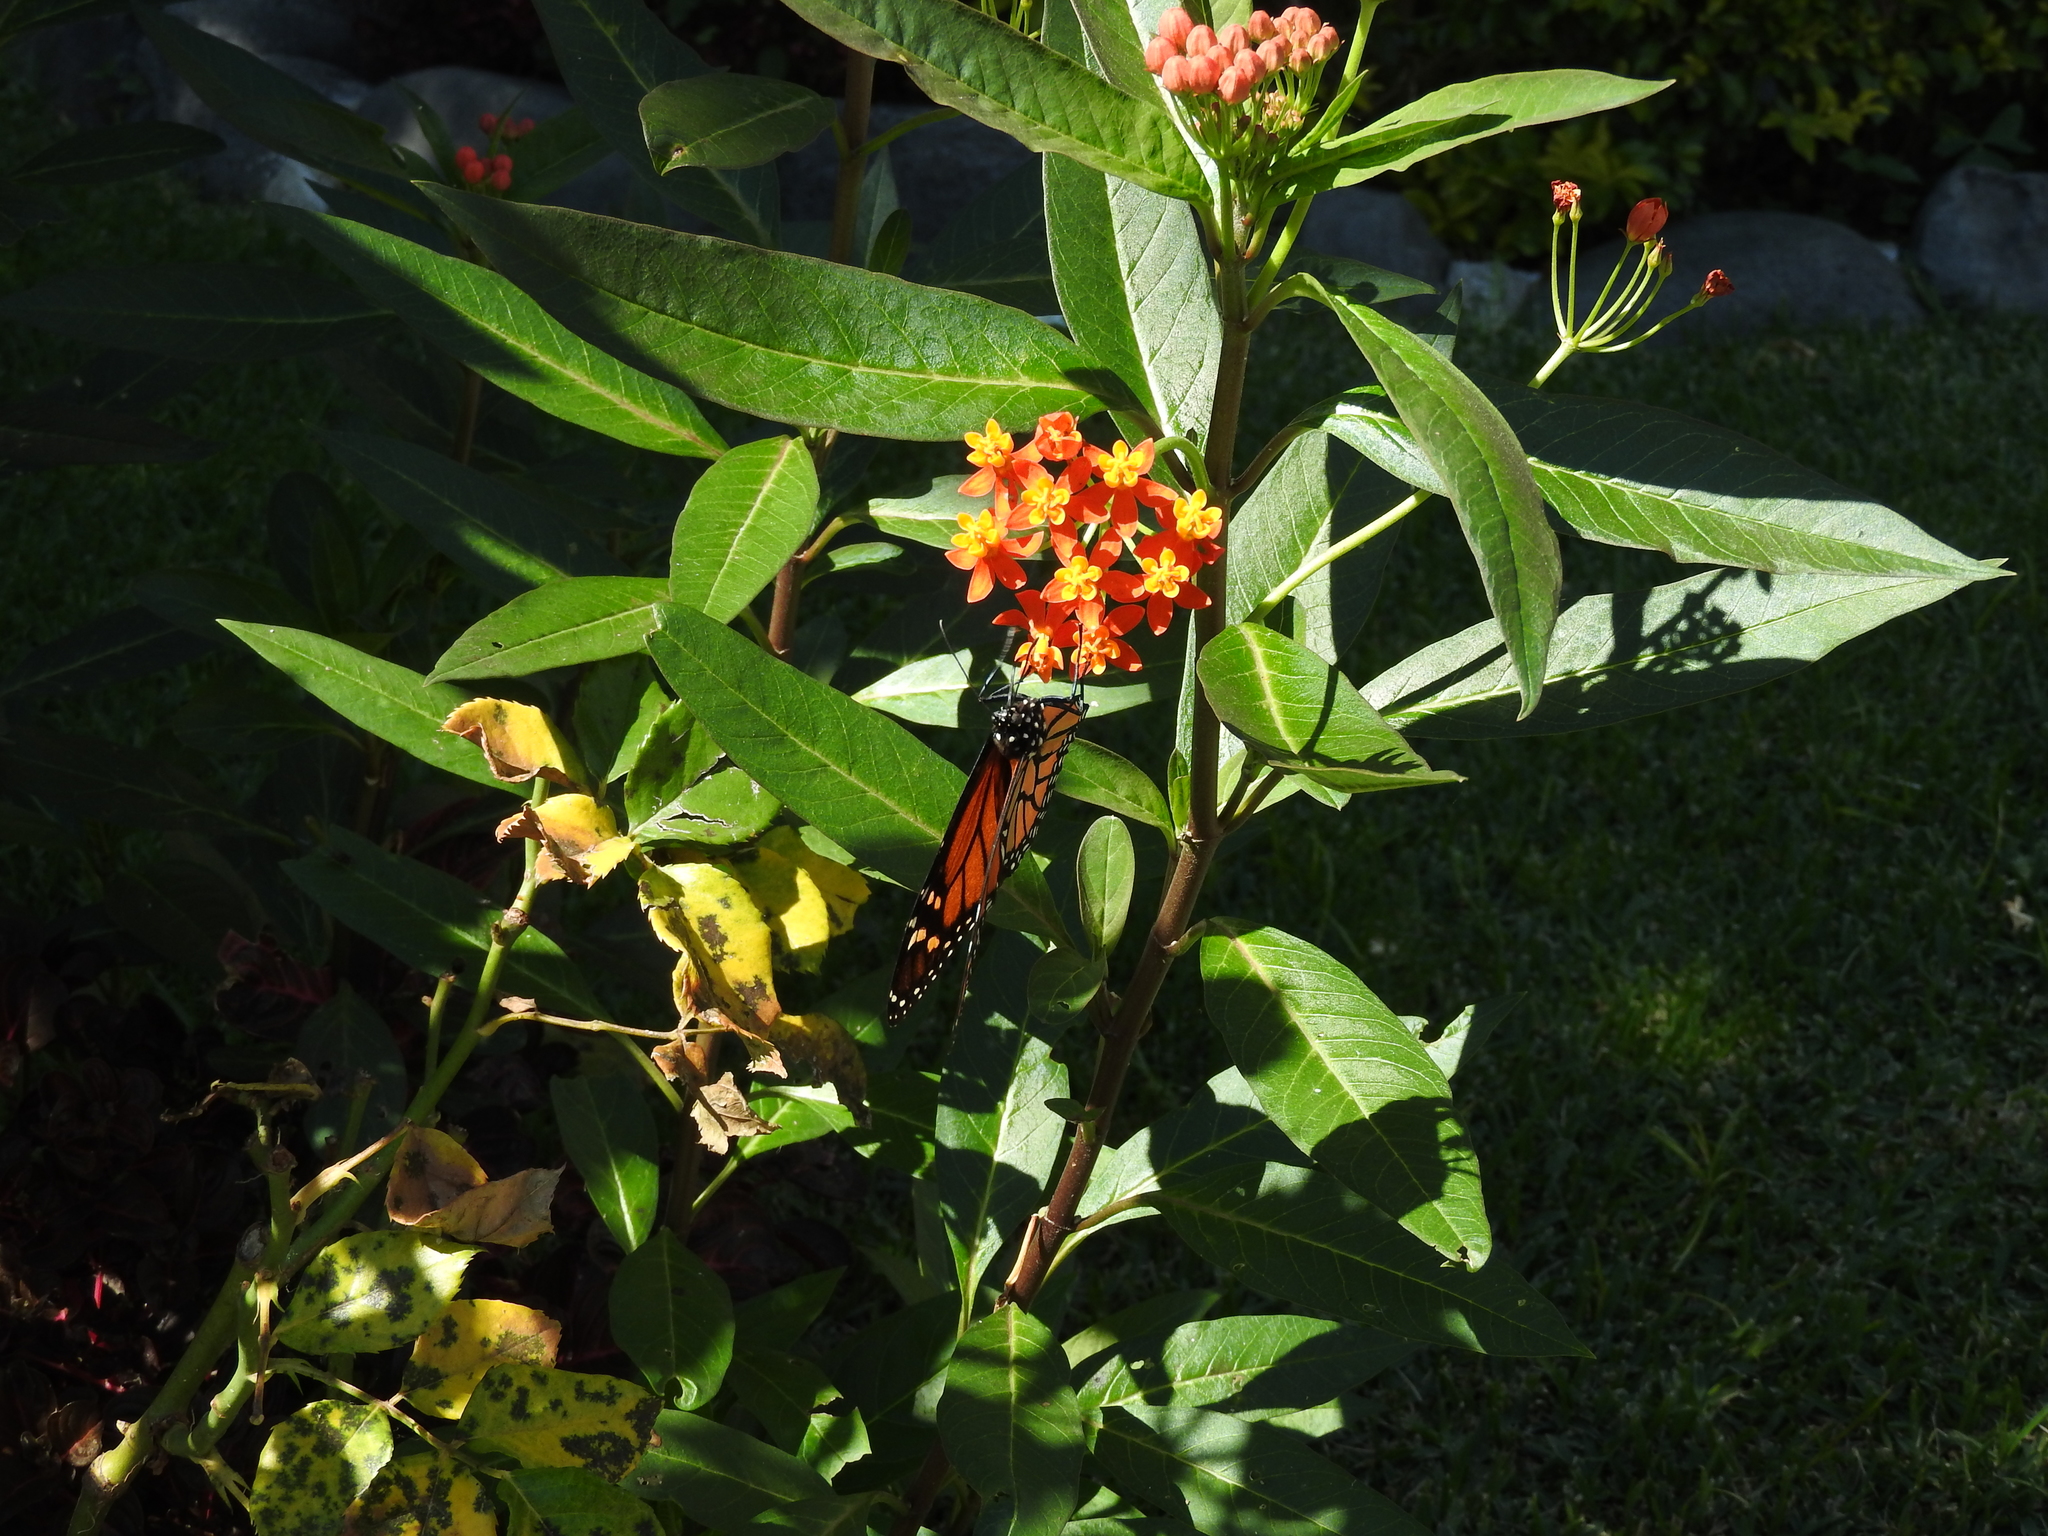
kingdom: Animalia
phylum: Arthropoda
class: Insecta
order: Lepidoptera
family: Nymphalidae
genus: Danaus
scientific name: Danaus plexippus
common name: Monarch
